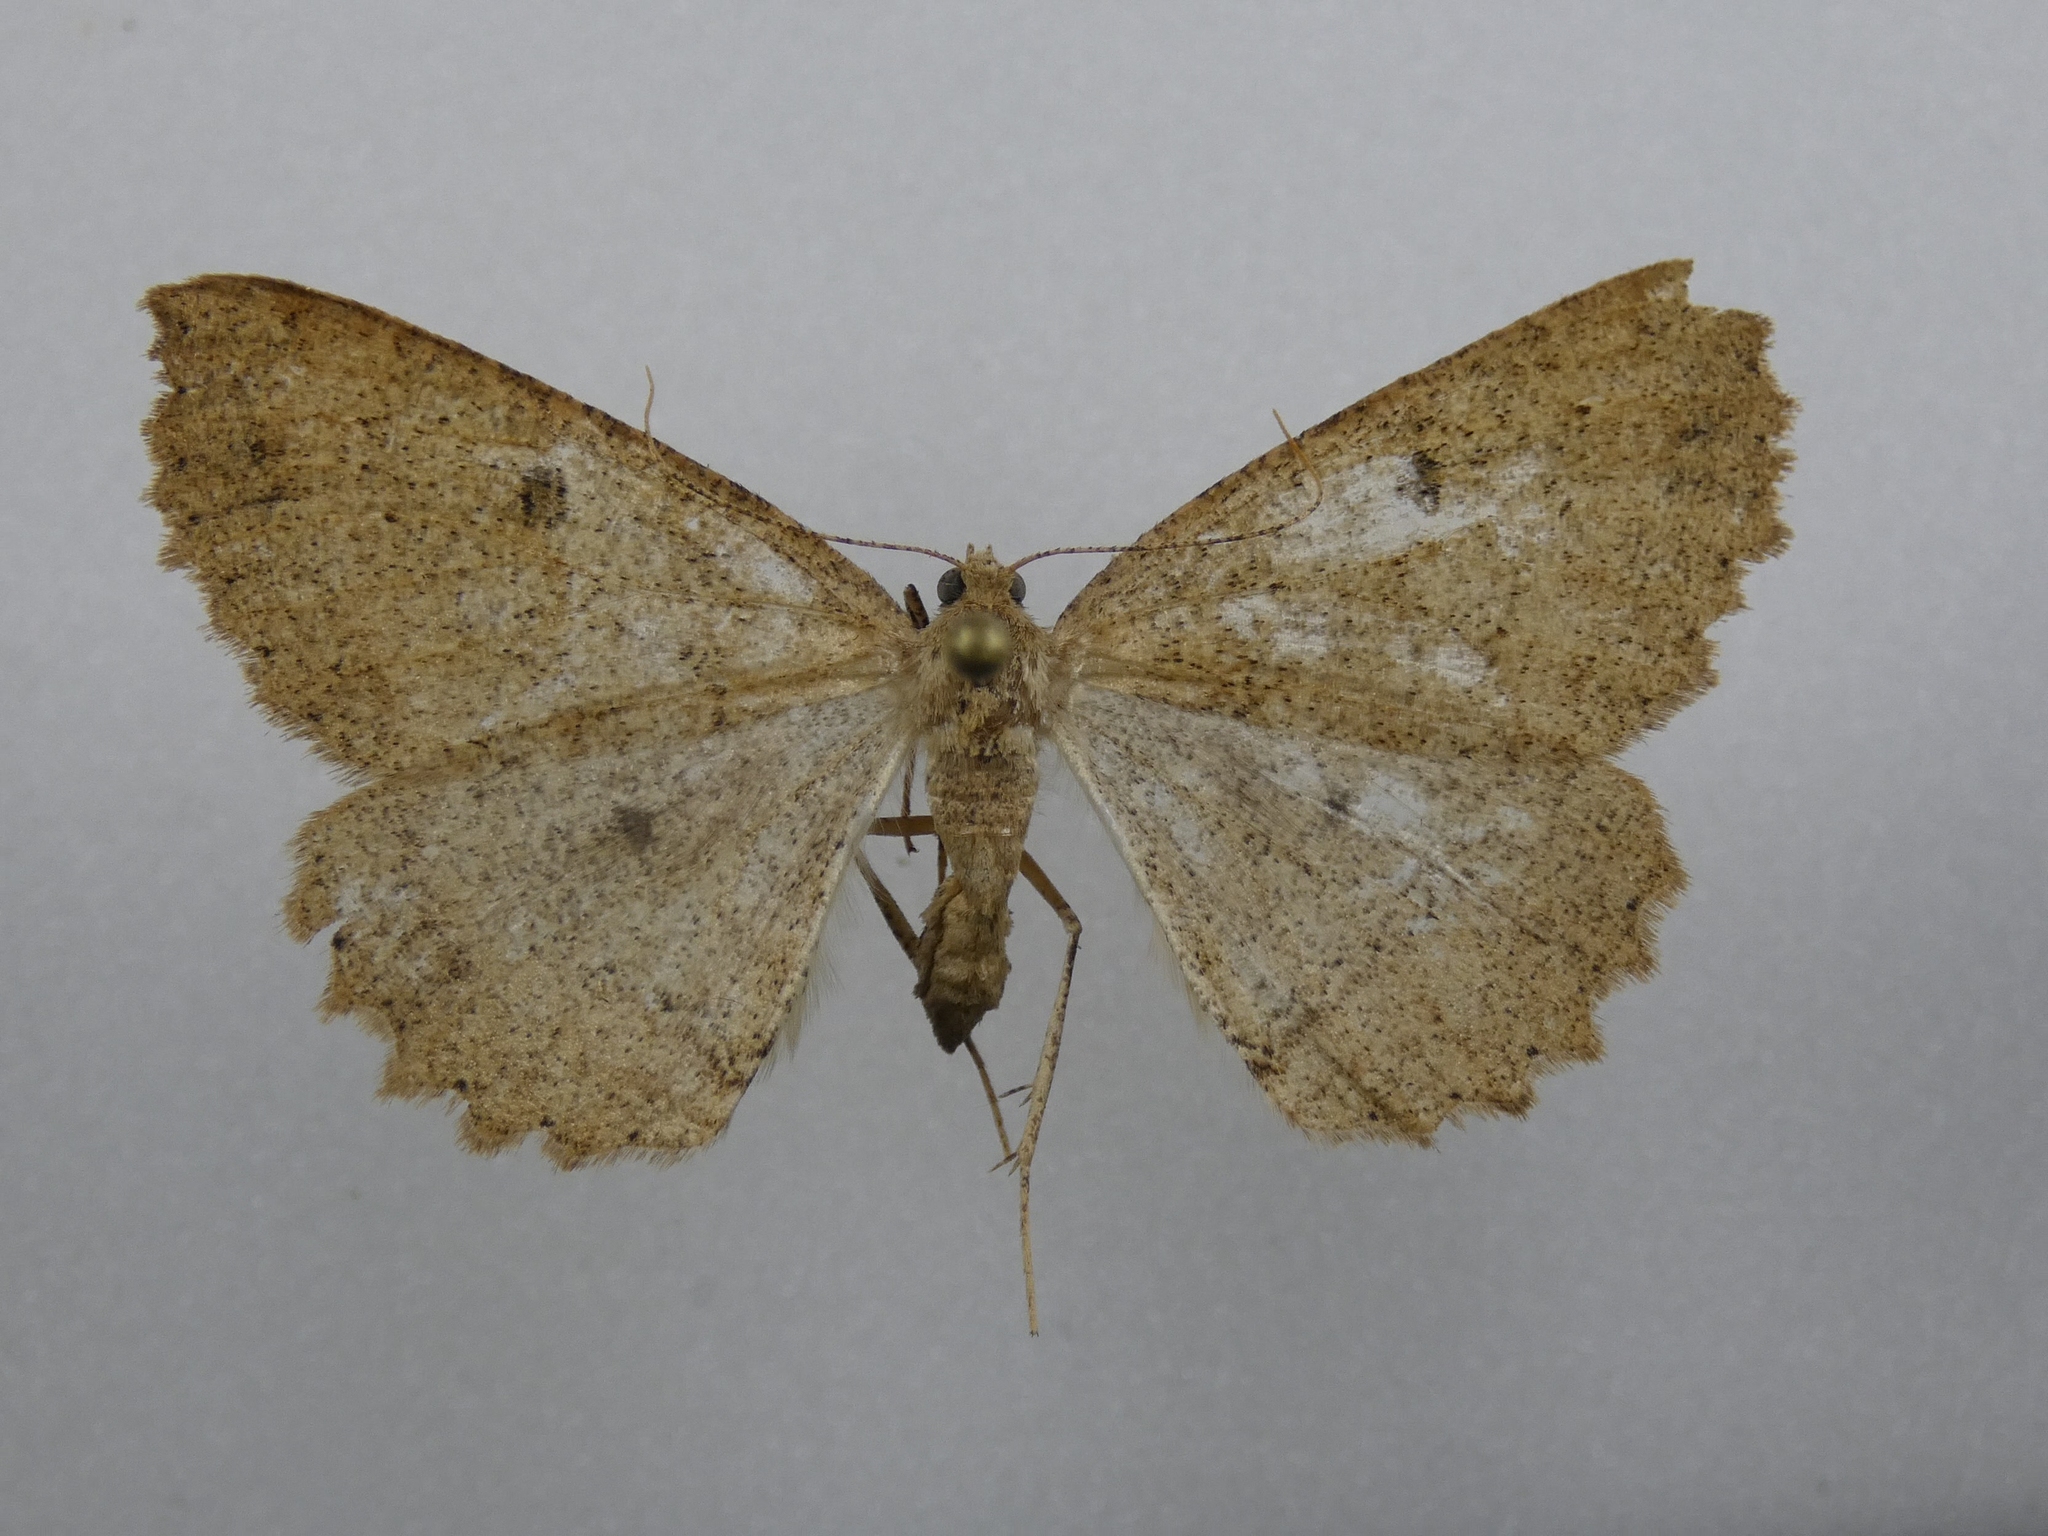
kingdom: Animalia
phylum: Arthropoda
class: Insecta
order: Lepidoptera
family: Geometridae
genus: Cleora
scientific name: Cleora scriptaria
